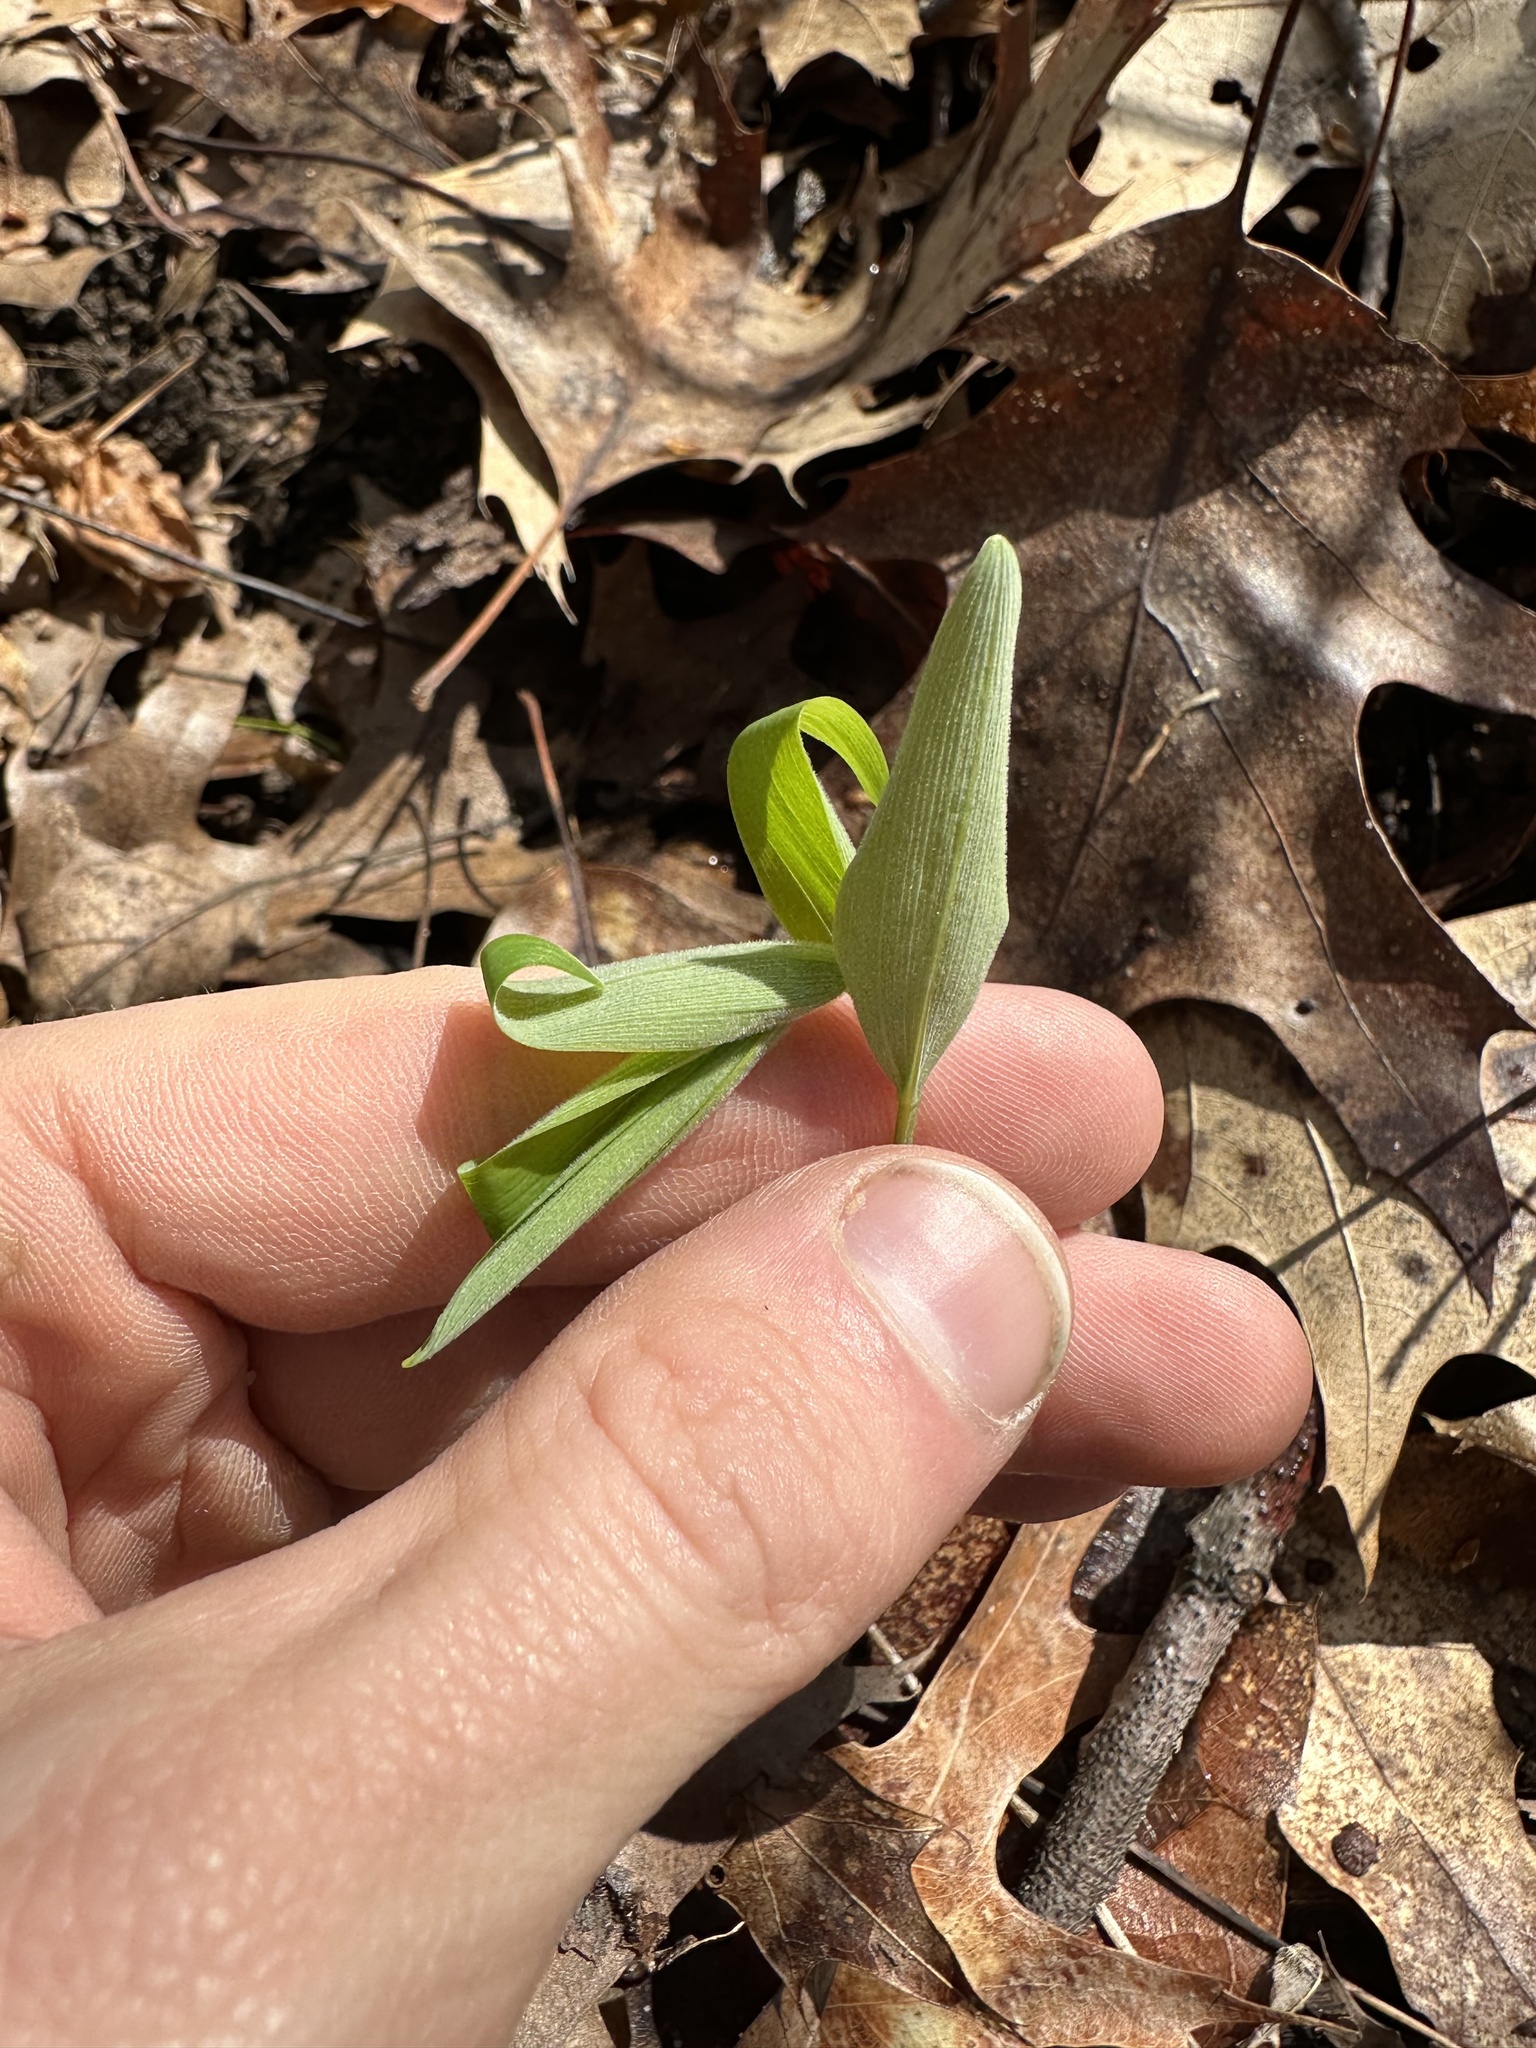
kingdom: Plantae
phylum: Tracheophyta
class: Liliopsida
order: Asparagales
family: Asparagaceae
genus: Polygonatum
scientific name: Polygonatum pubescens
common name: Downy solomon's seal
